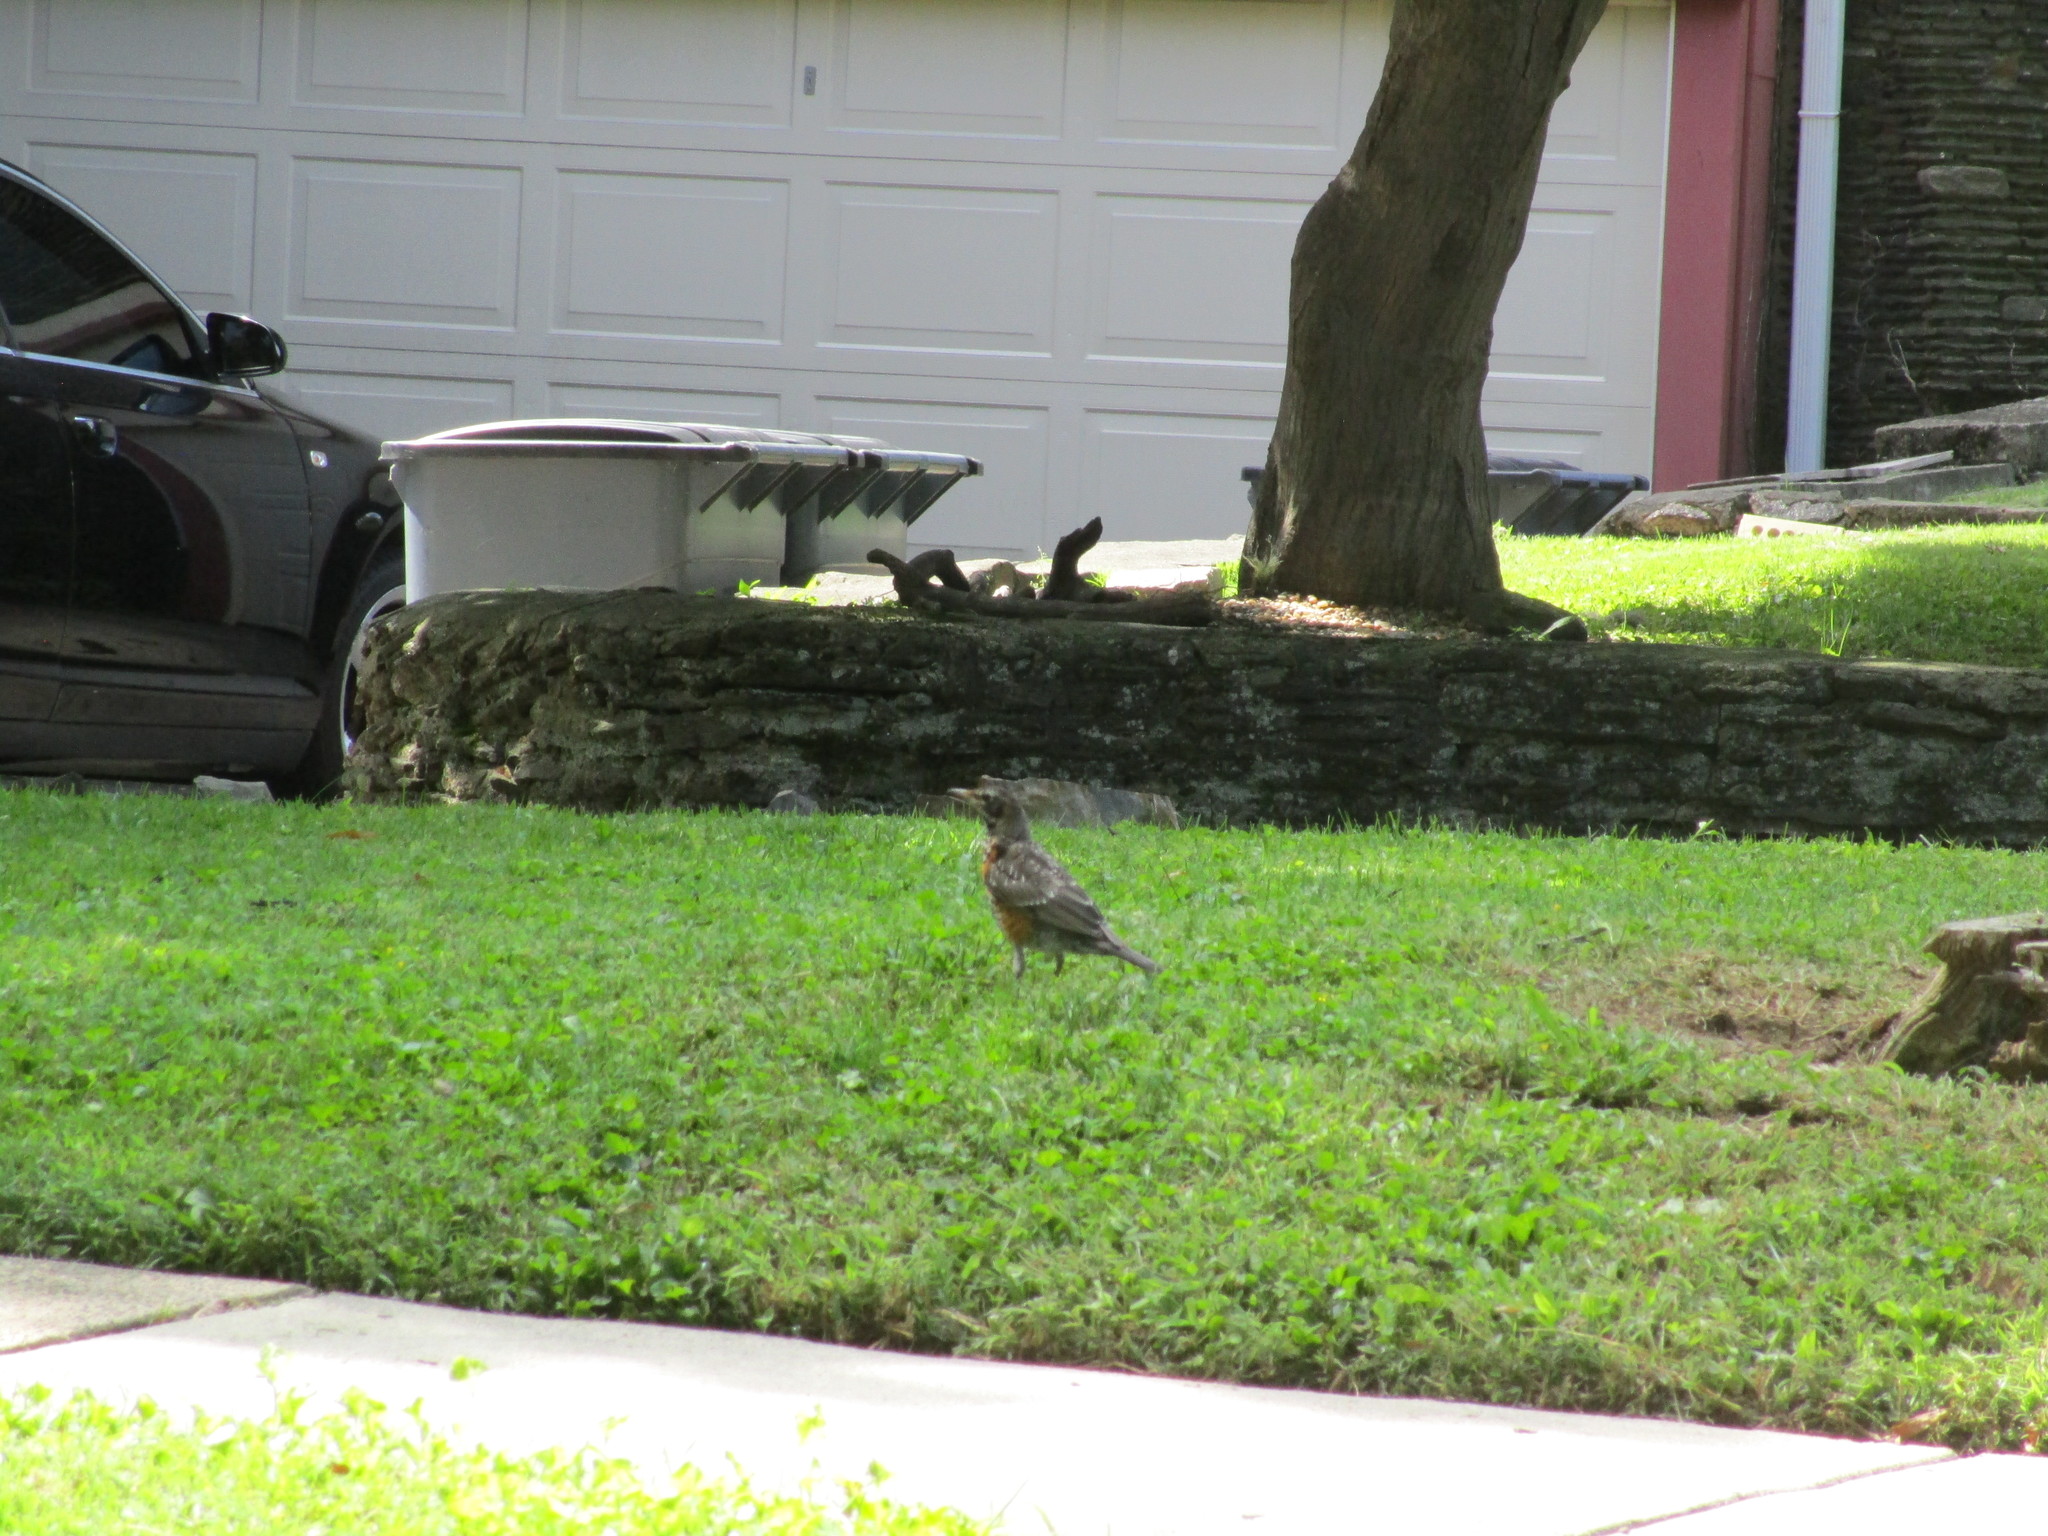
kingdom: Animalia
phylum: Chordata
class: Aves
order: Passeriformes
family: Turdidae
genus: Turdus
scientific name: Turdus migratorius
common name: American robin
